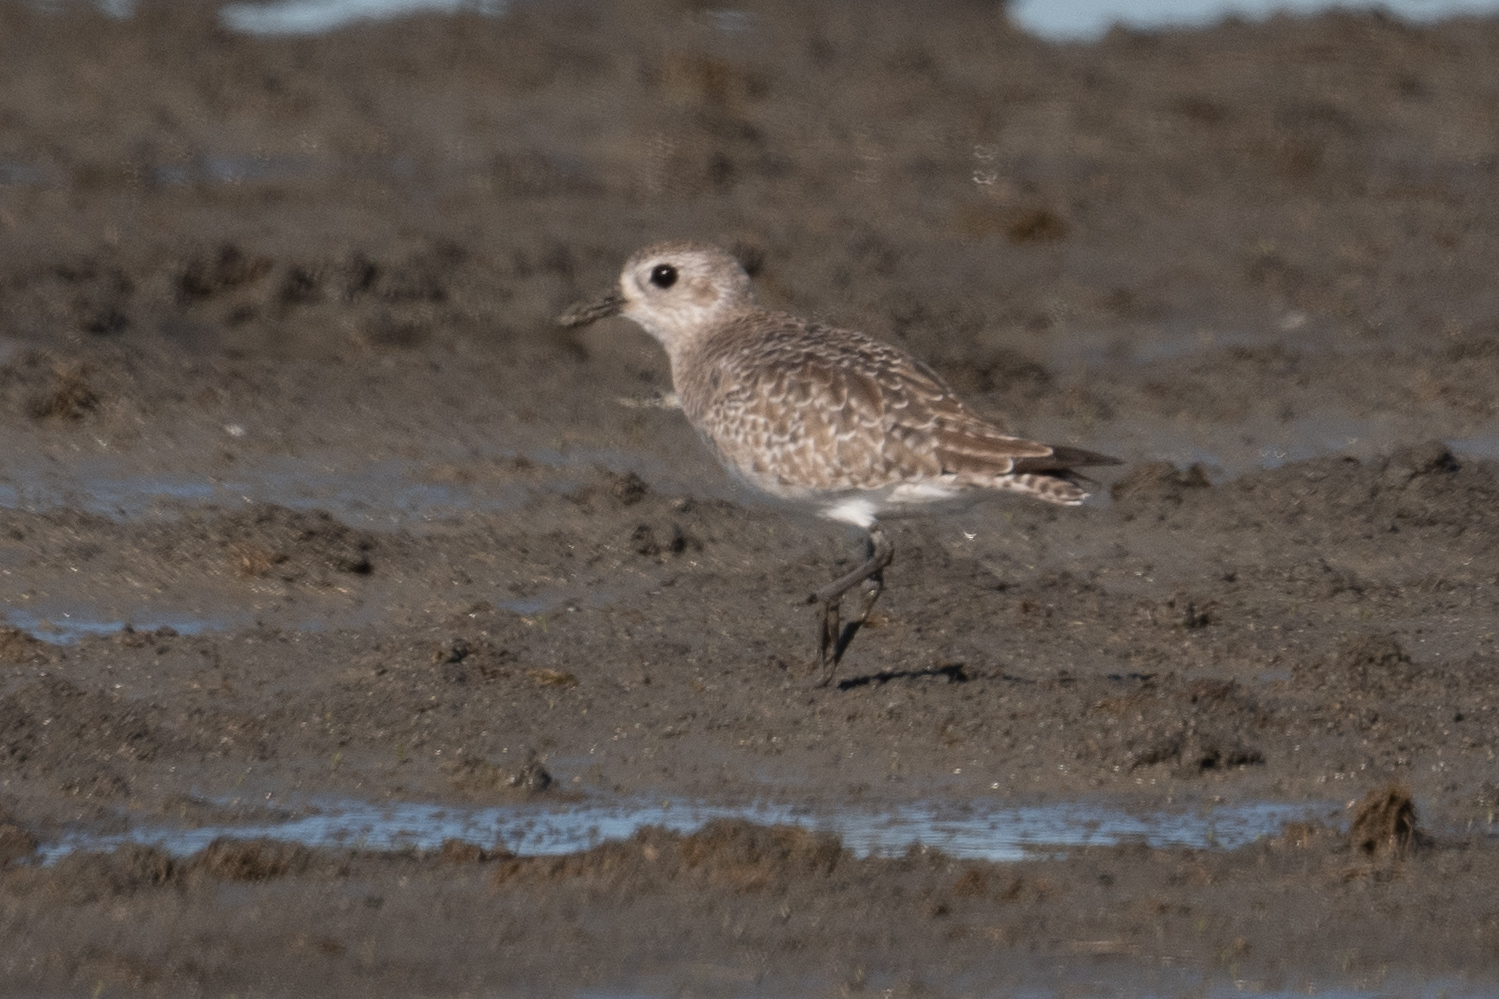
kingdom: Animalia
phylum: Chordata
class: Aves
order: Charadriiformes
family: Charadriidae
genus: Pluvialis
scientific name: Pluvialis squatarola
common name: Grey plover
